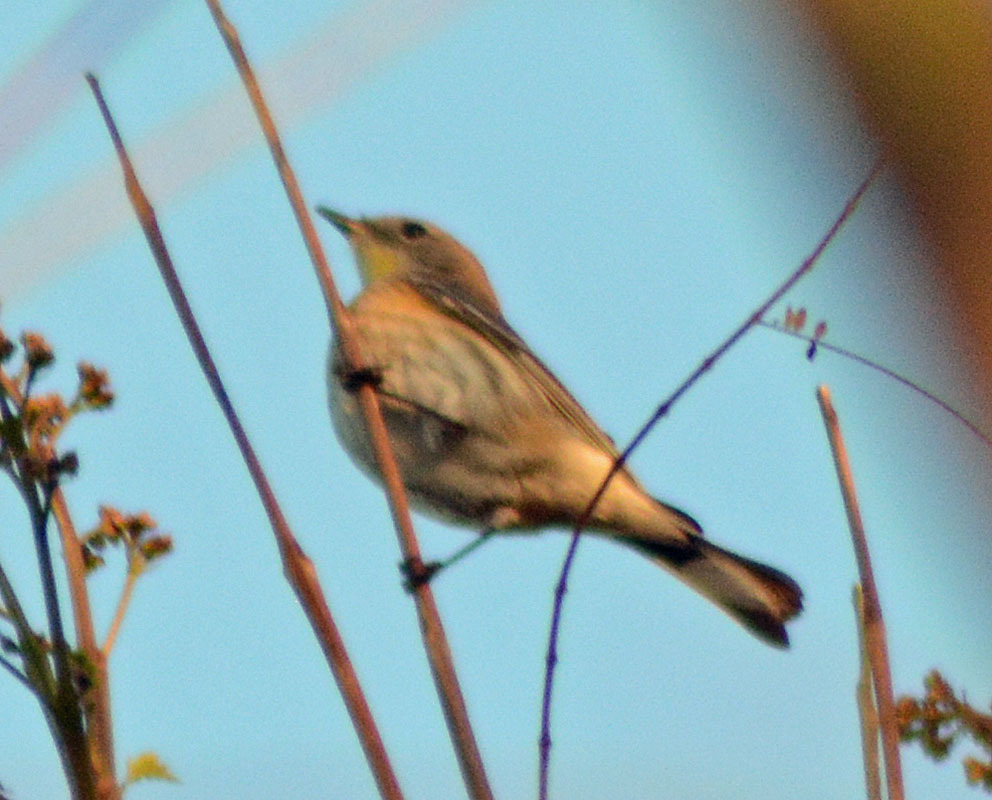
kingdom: Animalia
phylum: Chordata
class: Aves
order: Passeriformes
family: Parulidae
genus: Setophaga
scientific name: Setophaga auduboni
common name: Audubon's warbler
